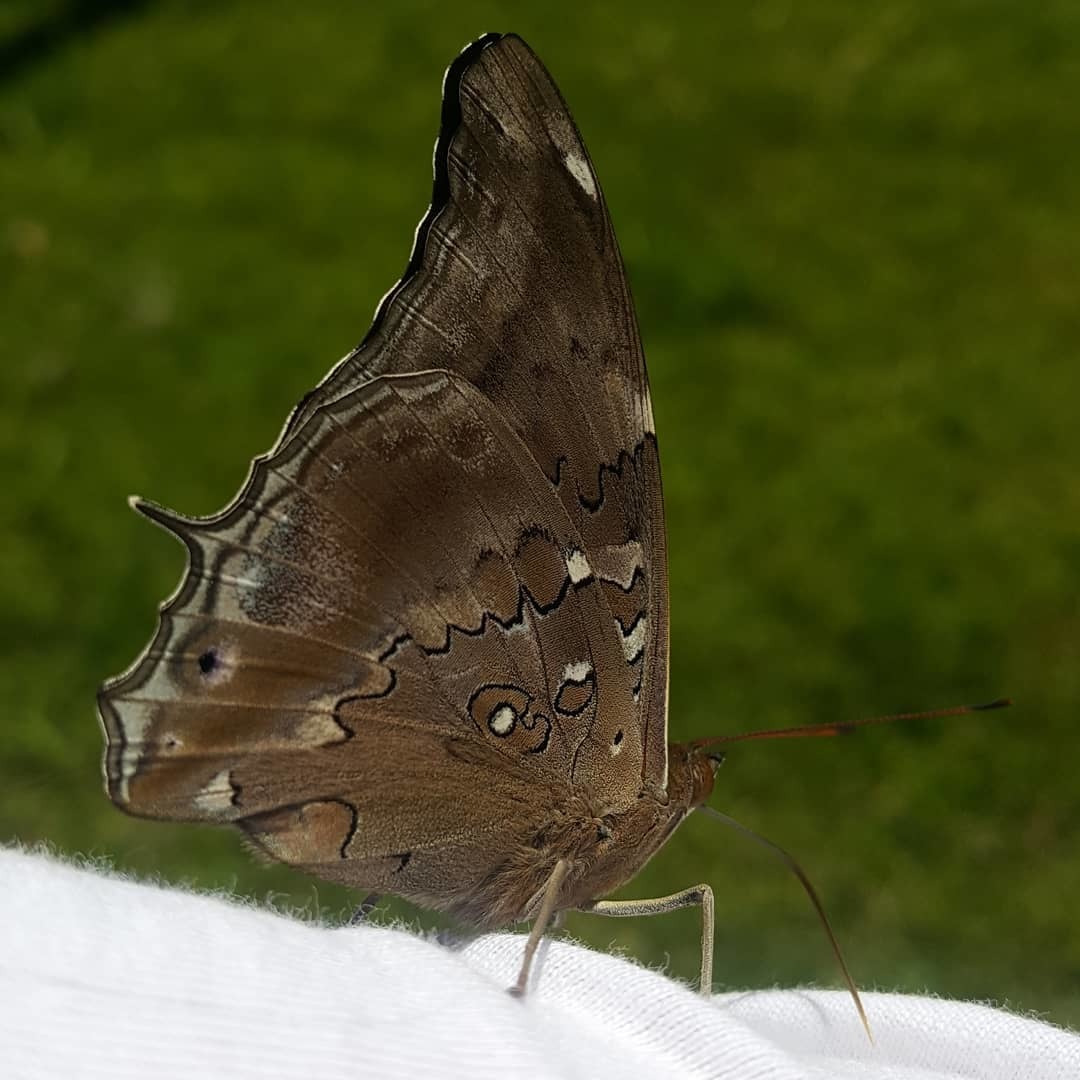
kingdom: Animalia
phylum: Arthropoda
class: Insecta
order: Lepidoptera
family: Nymphalidae
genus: Coea
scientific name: Coea acheronta
